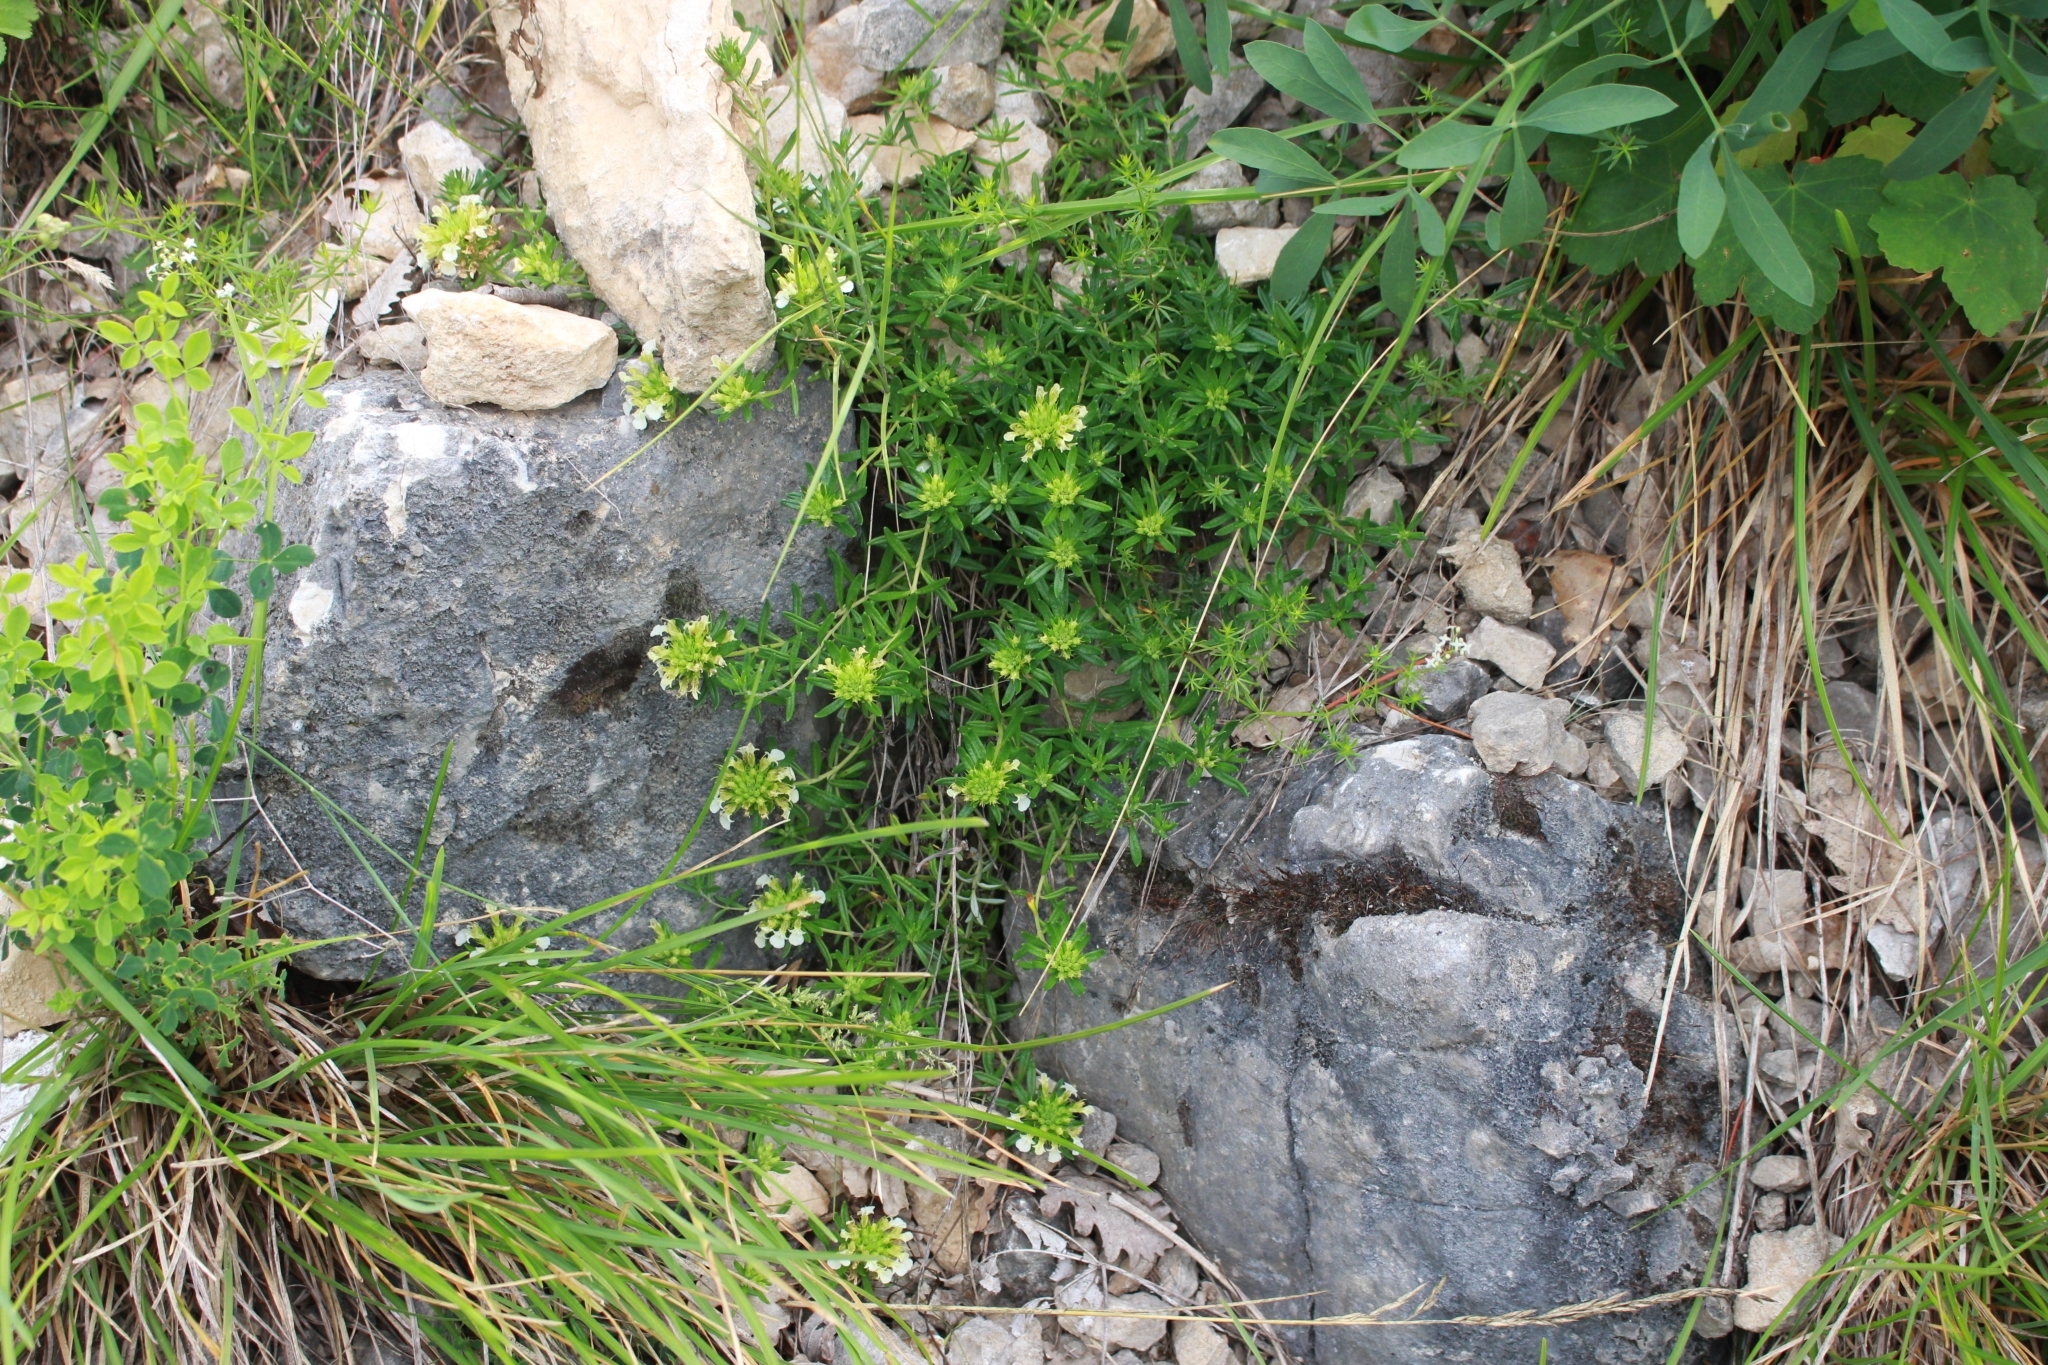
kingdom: Plantae
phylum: Tracheophyta
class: Magnoliopsida
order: Lamiales
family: Lamiaceae
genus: Teucrium
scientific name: Teucrium montanum
